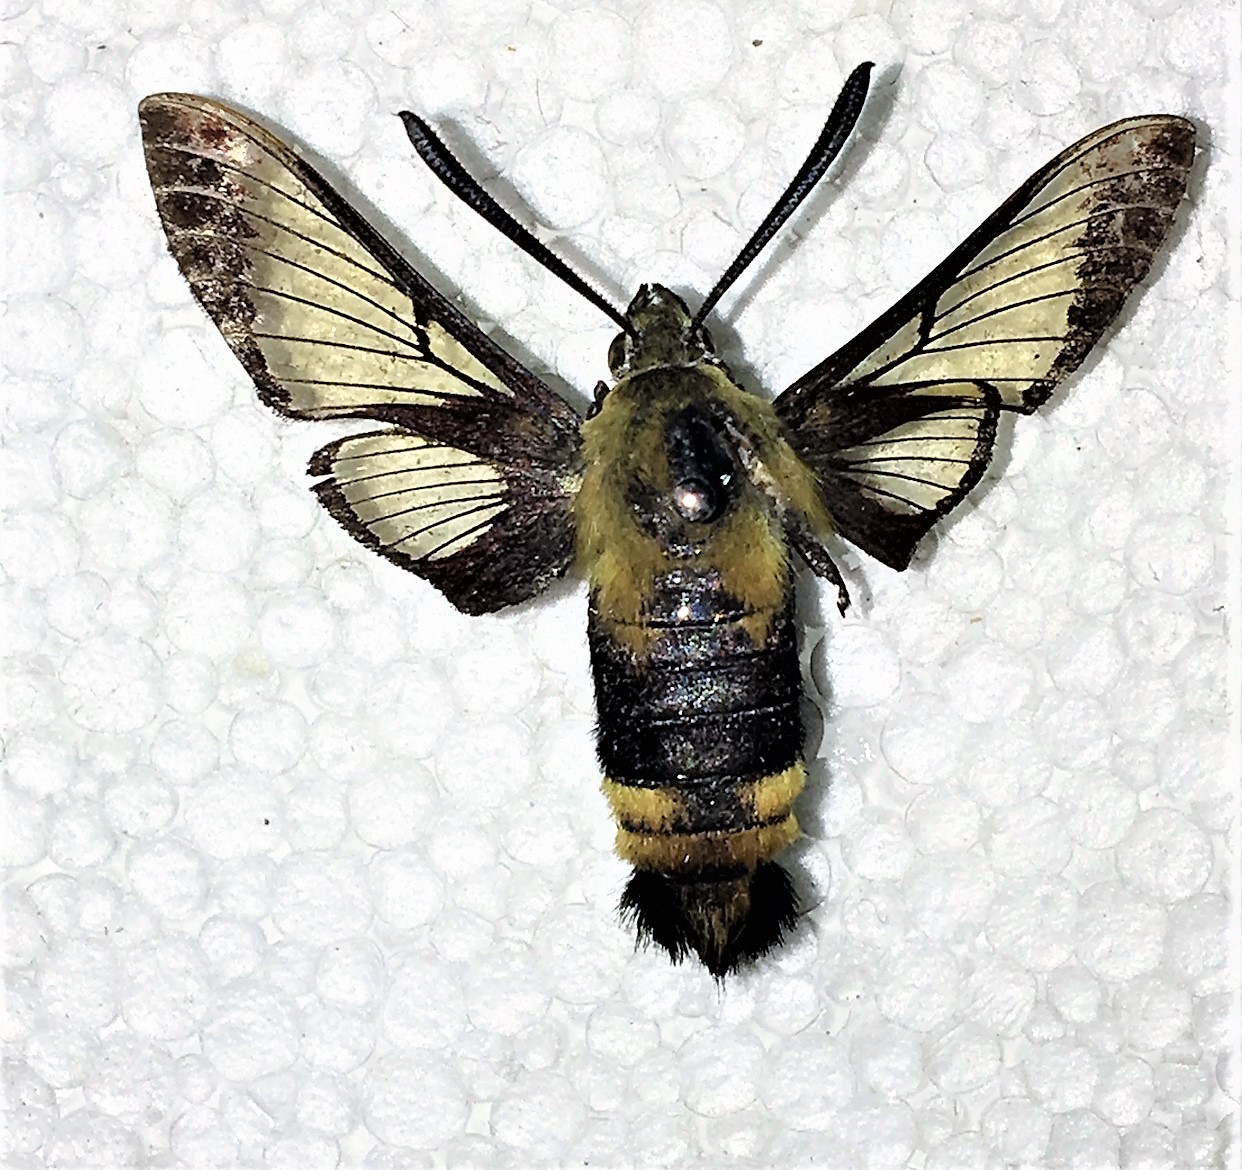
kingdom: Animalia
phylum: Arthropoda
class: Insecta
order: Lepidoptera
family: Sphingidae
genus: Hemaris
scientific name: Hemaris diffinis
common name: Bumblebee moth
